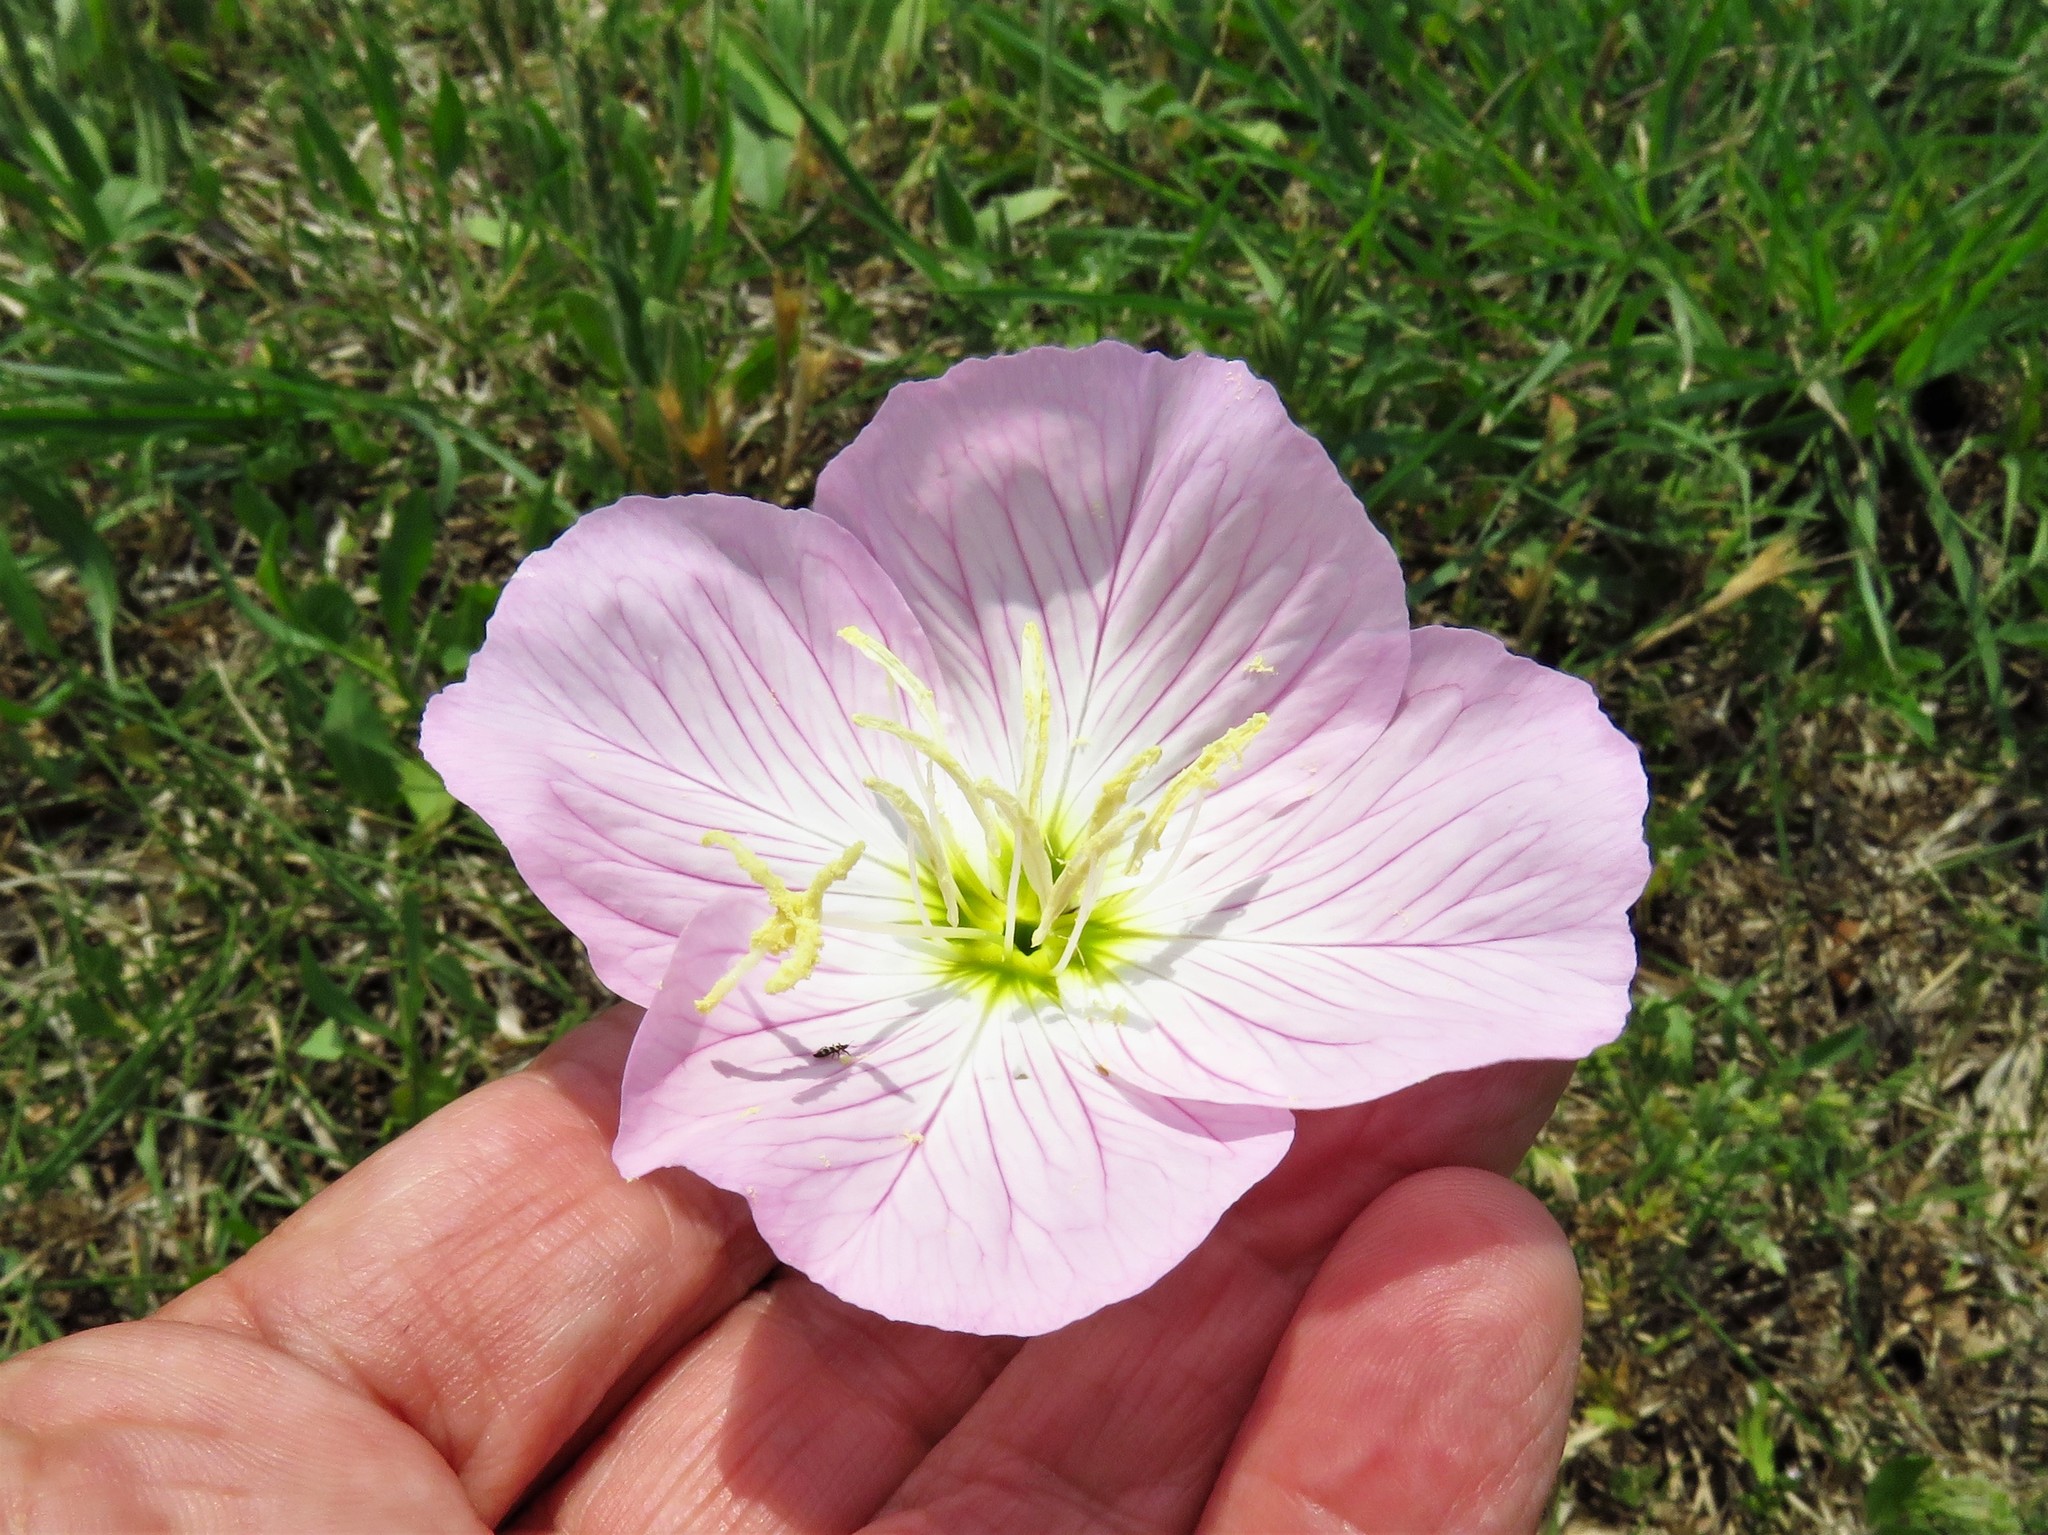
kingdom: Plantae
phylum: Tracheophyta
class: Magnoliopsida
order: Myrtales
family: Onagraceae
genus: Oenothera
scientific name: Oenothera speciosa
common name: White evening-primrose
